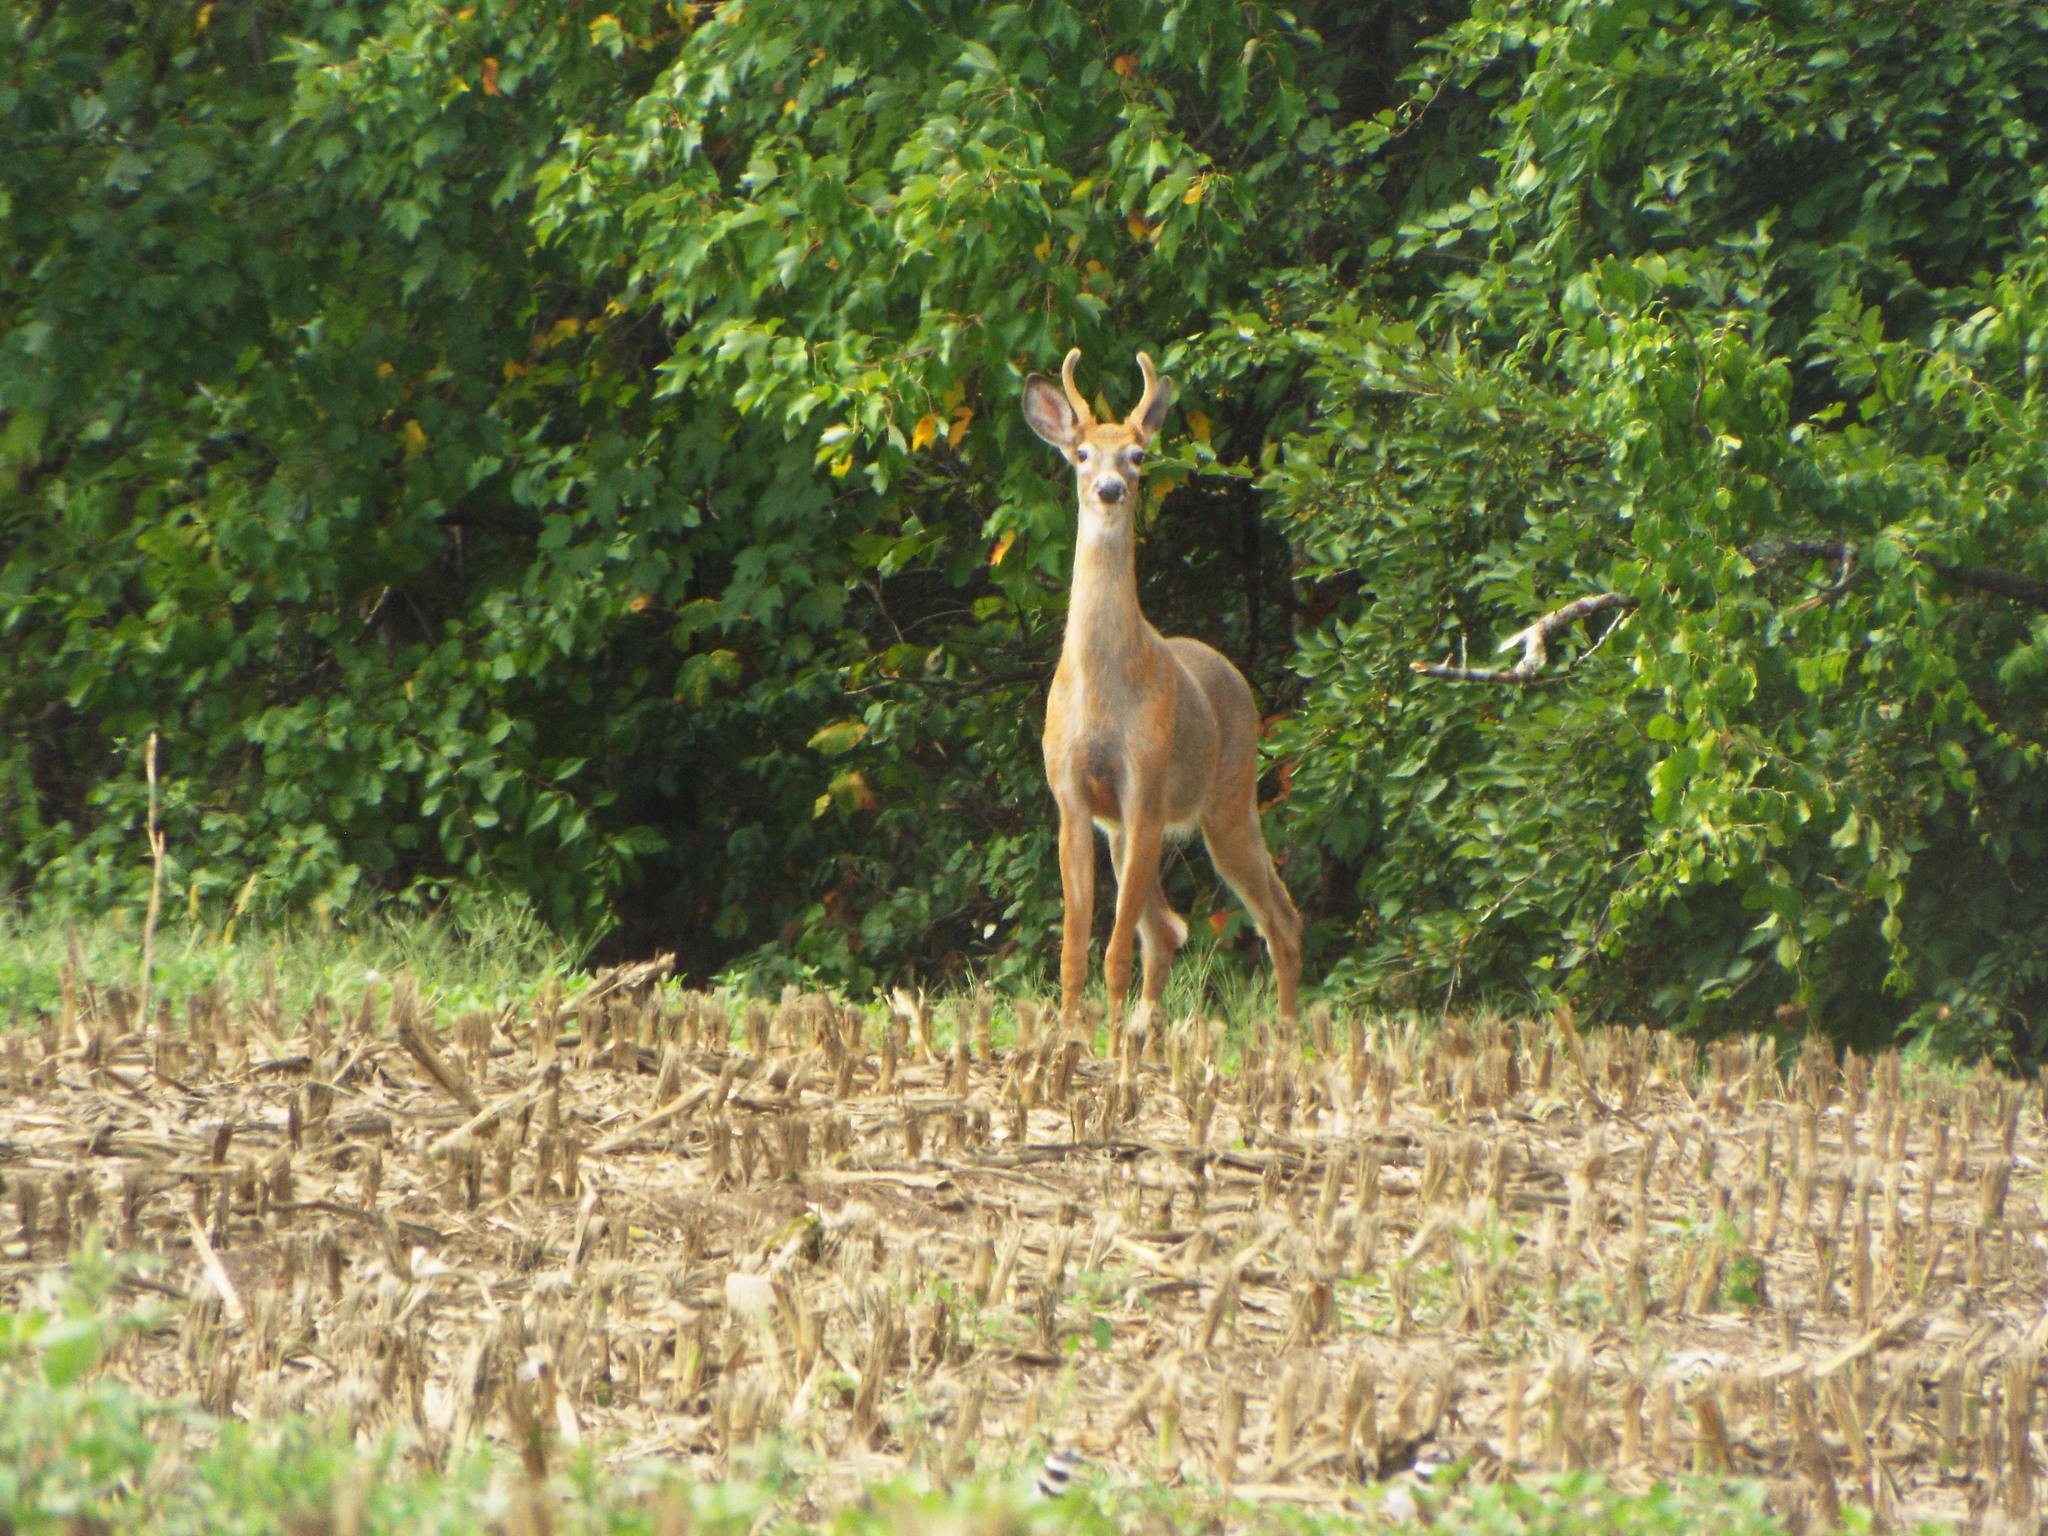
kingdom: Animalia
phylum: Chordata
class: Mammalia
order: Artiodactyla
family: Cervidae
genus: Odocoileus
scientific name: Odocoileus virginianus
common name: White-tailed deer
